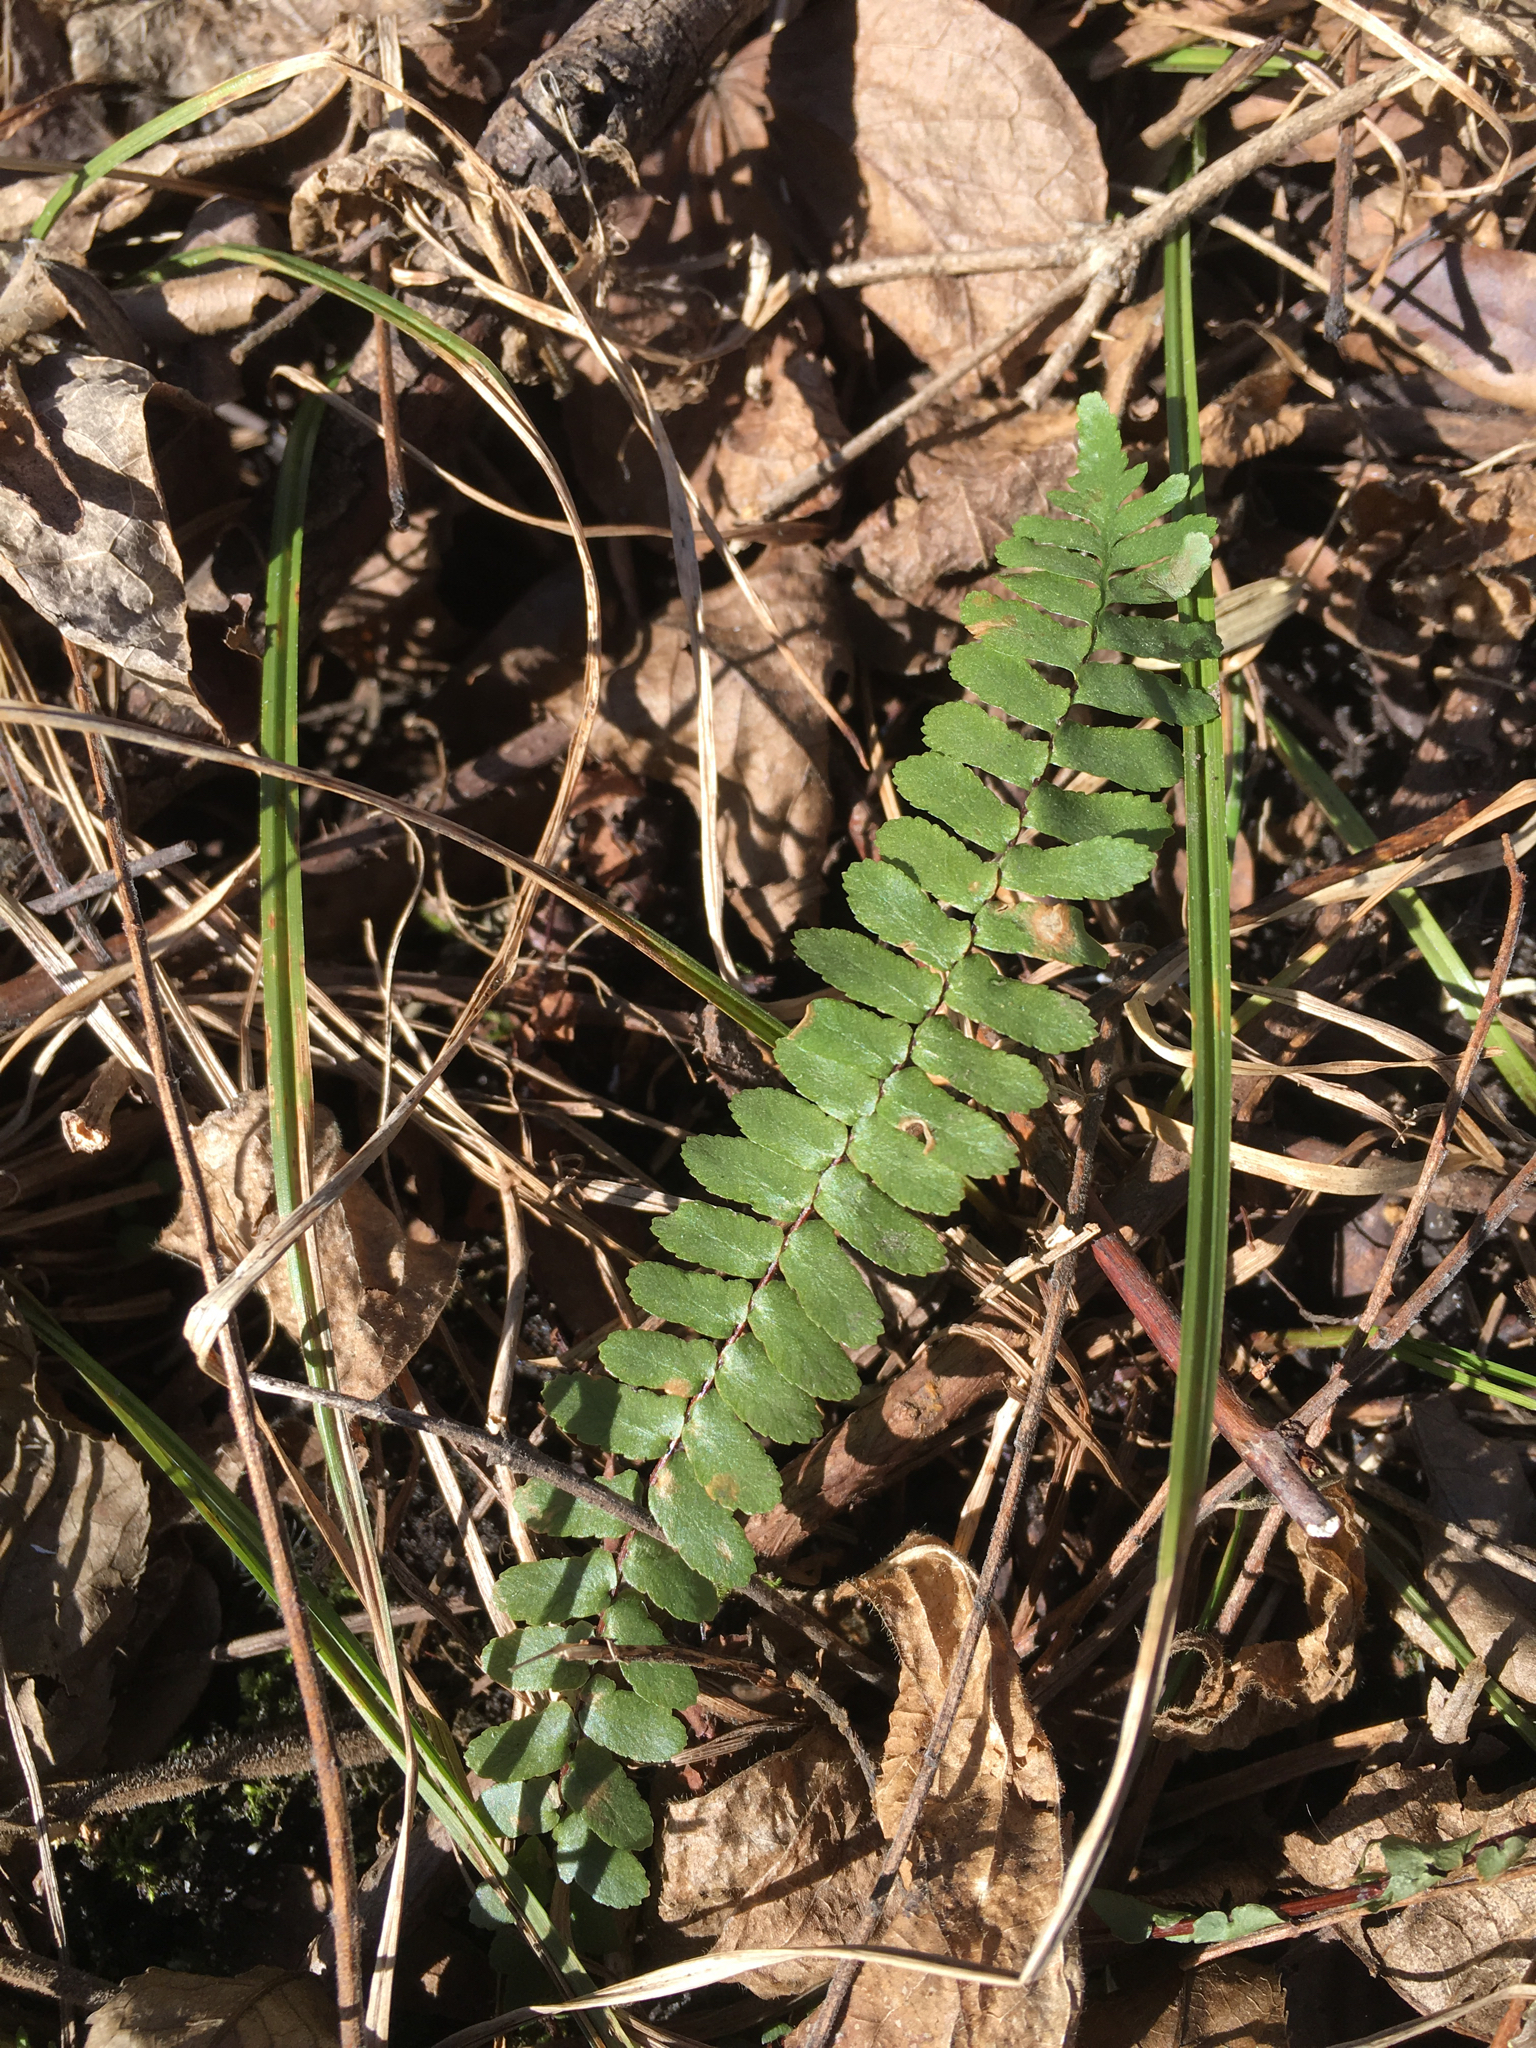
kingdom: Plantae
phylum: Tracheophyta
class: Polypodiopsida
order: Polypodiales
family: Aspleniaceae
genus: Asplenium
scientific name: Asplenium platyneuron
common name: Ebony spleenwort
